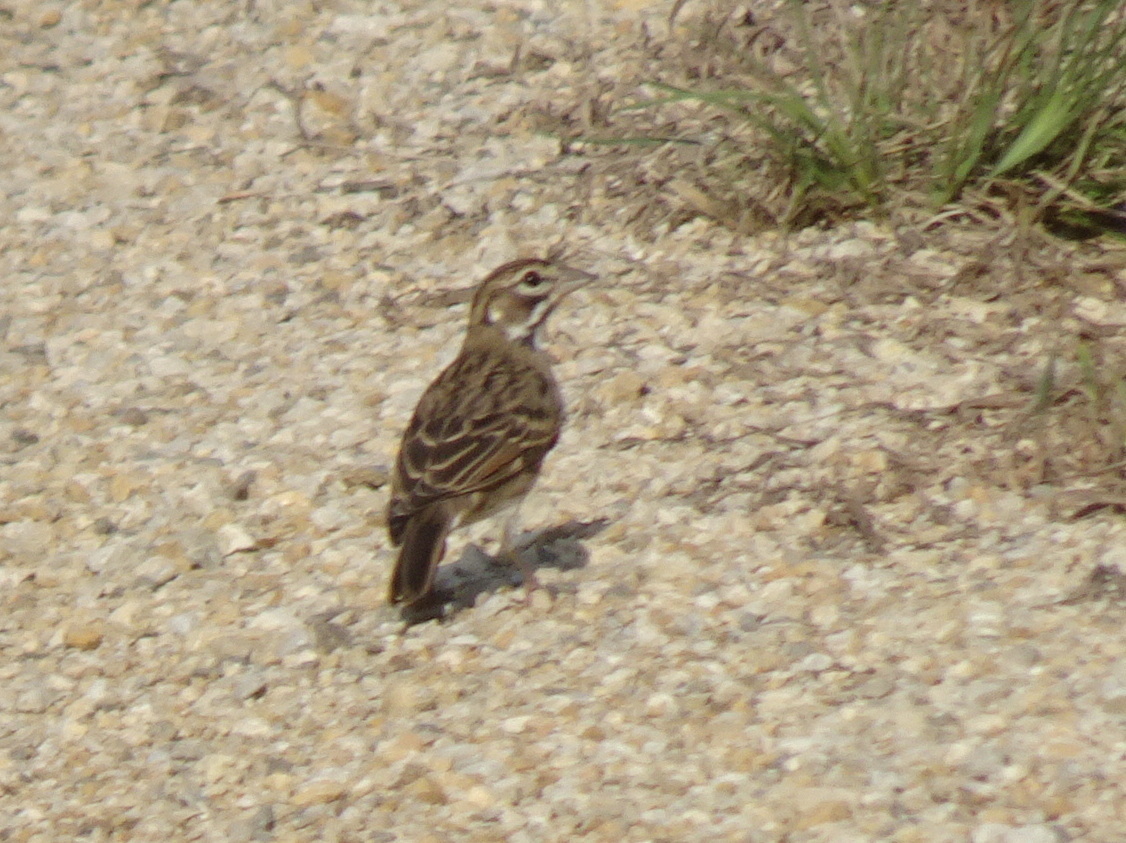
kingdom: Animalia
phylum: Chordata
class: Aves
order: Passeriformes
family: Passerellidae
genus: Chondestes
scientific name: Chondestes grammacus
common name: Lark sparrow
